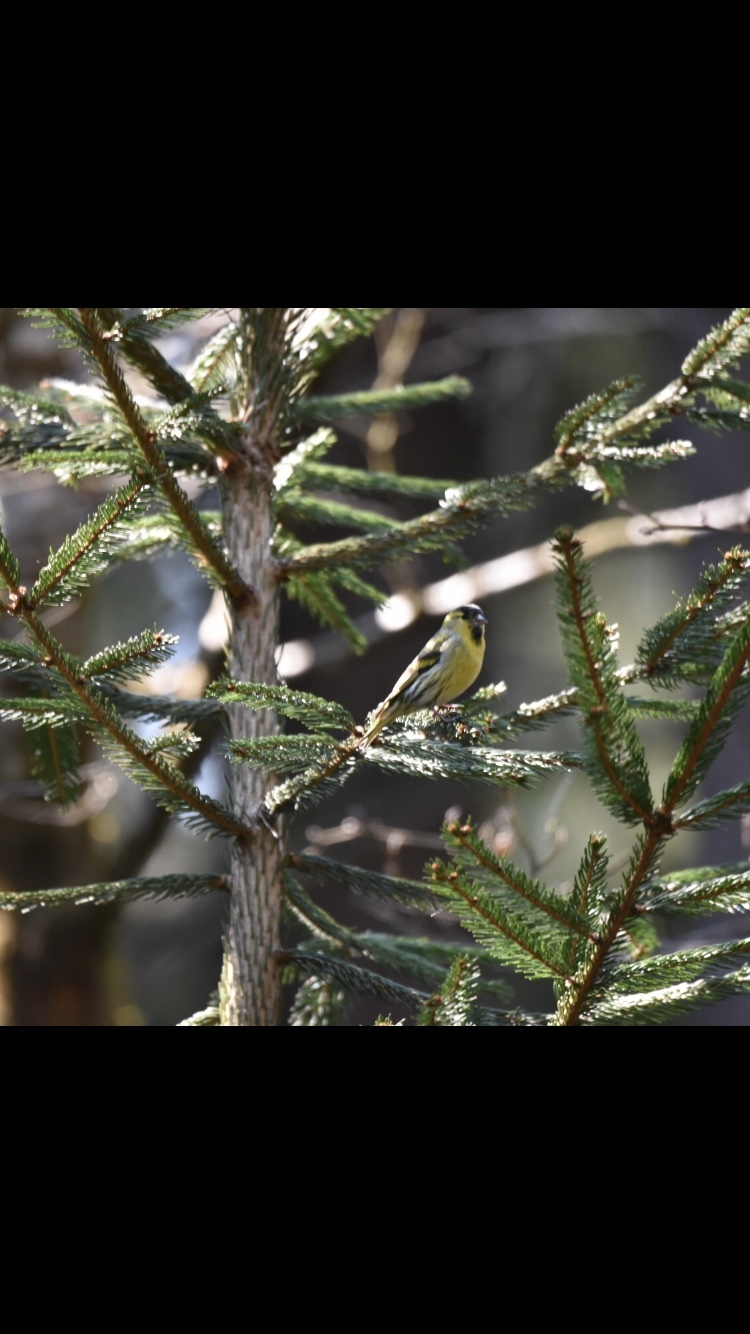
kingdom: Animalia
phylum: Chordata
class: Aves
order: Passeriformes
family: Fringillidae
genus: Spinus
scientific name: Spinus spinus
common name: Eurasian siskin
